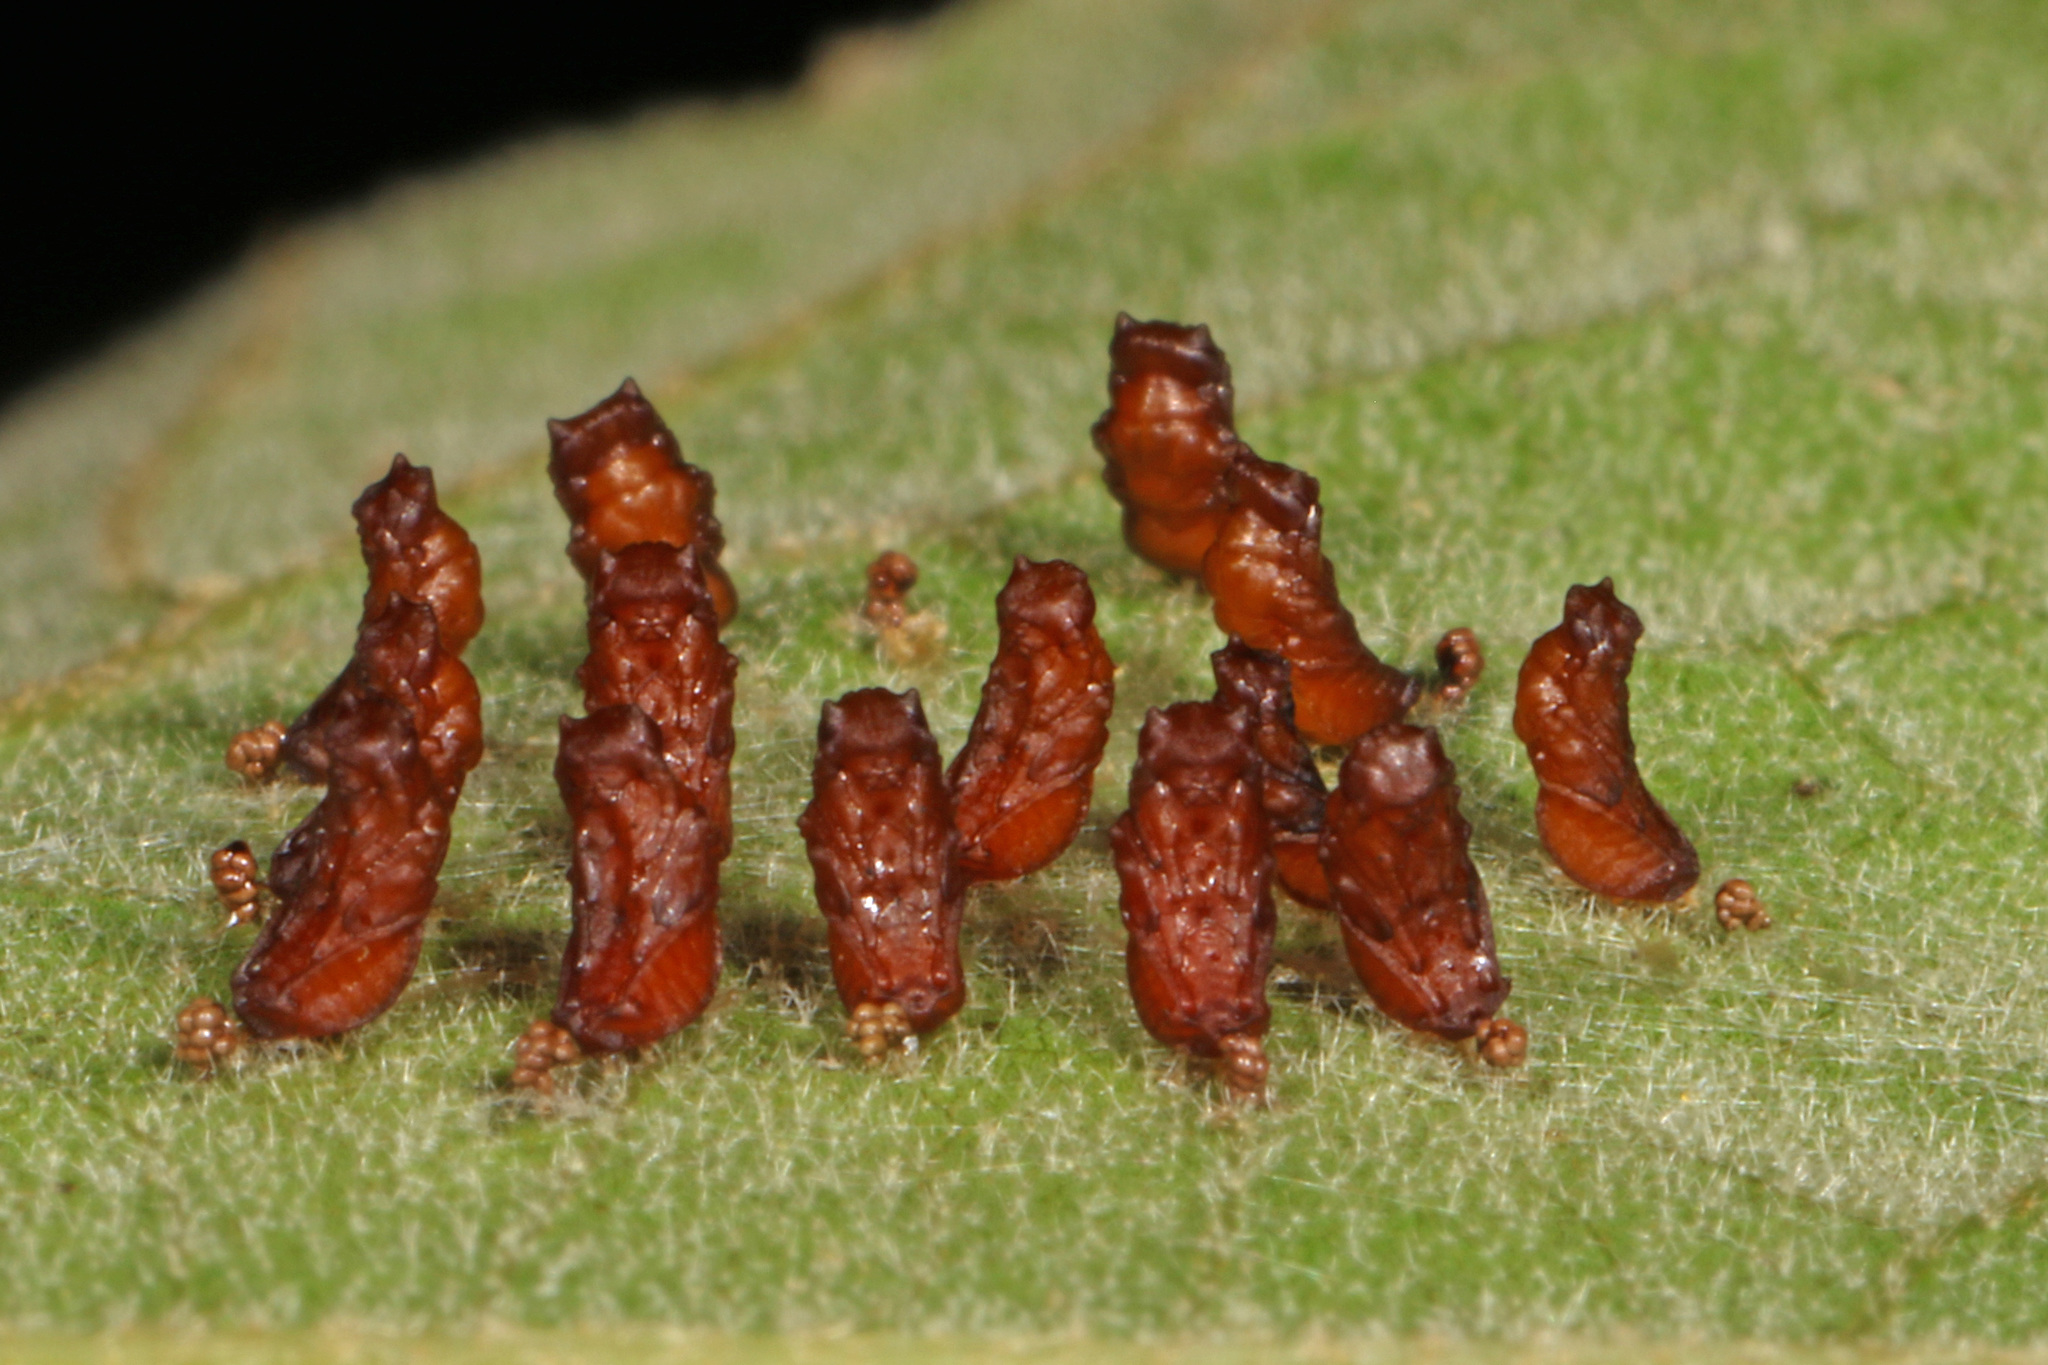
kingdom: Animalia
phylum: Arthropoda
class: Insecta
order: Hymenoptera
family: Eulophidae
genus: Eulophus
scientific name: Eulophus
